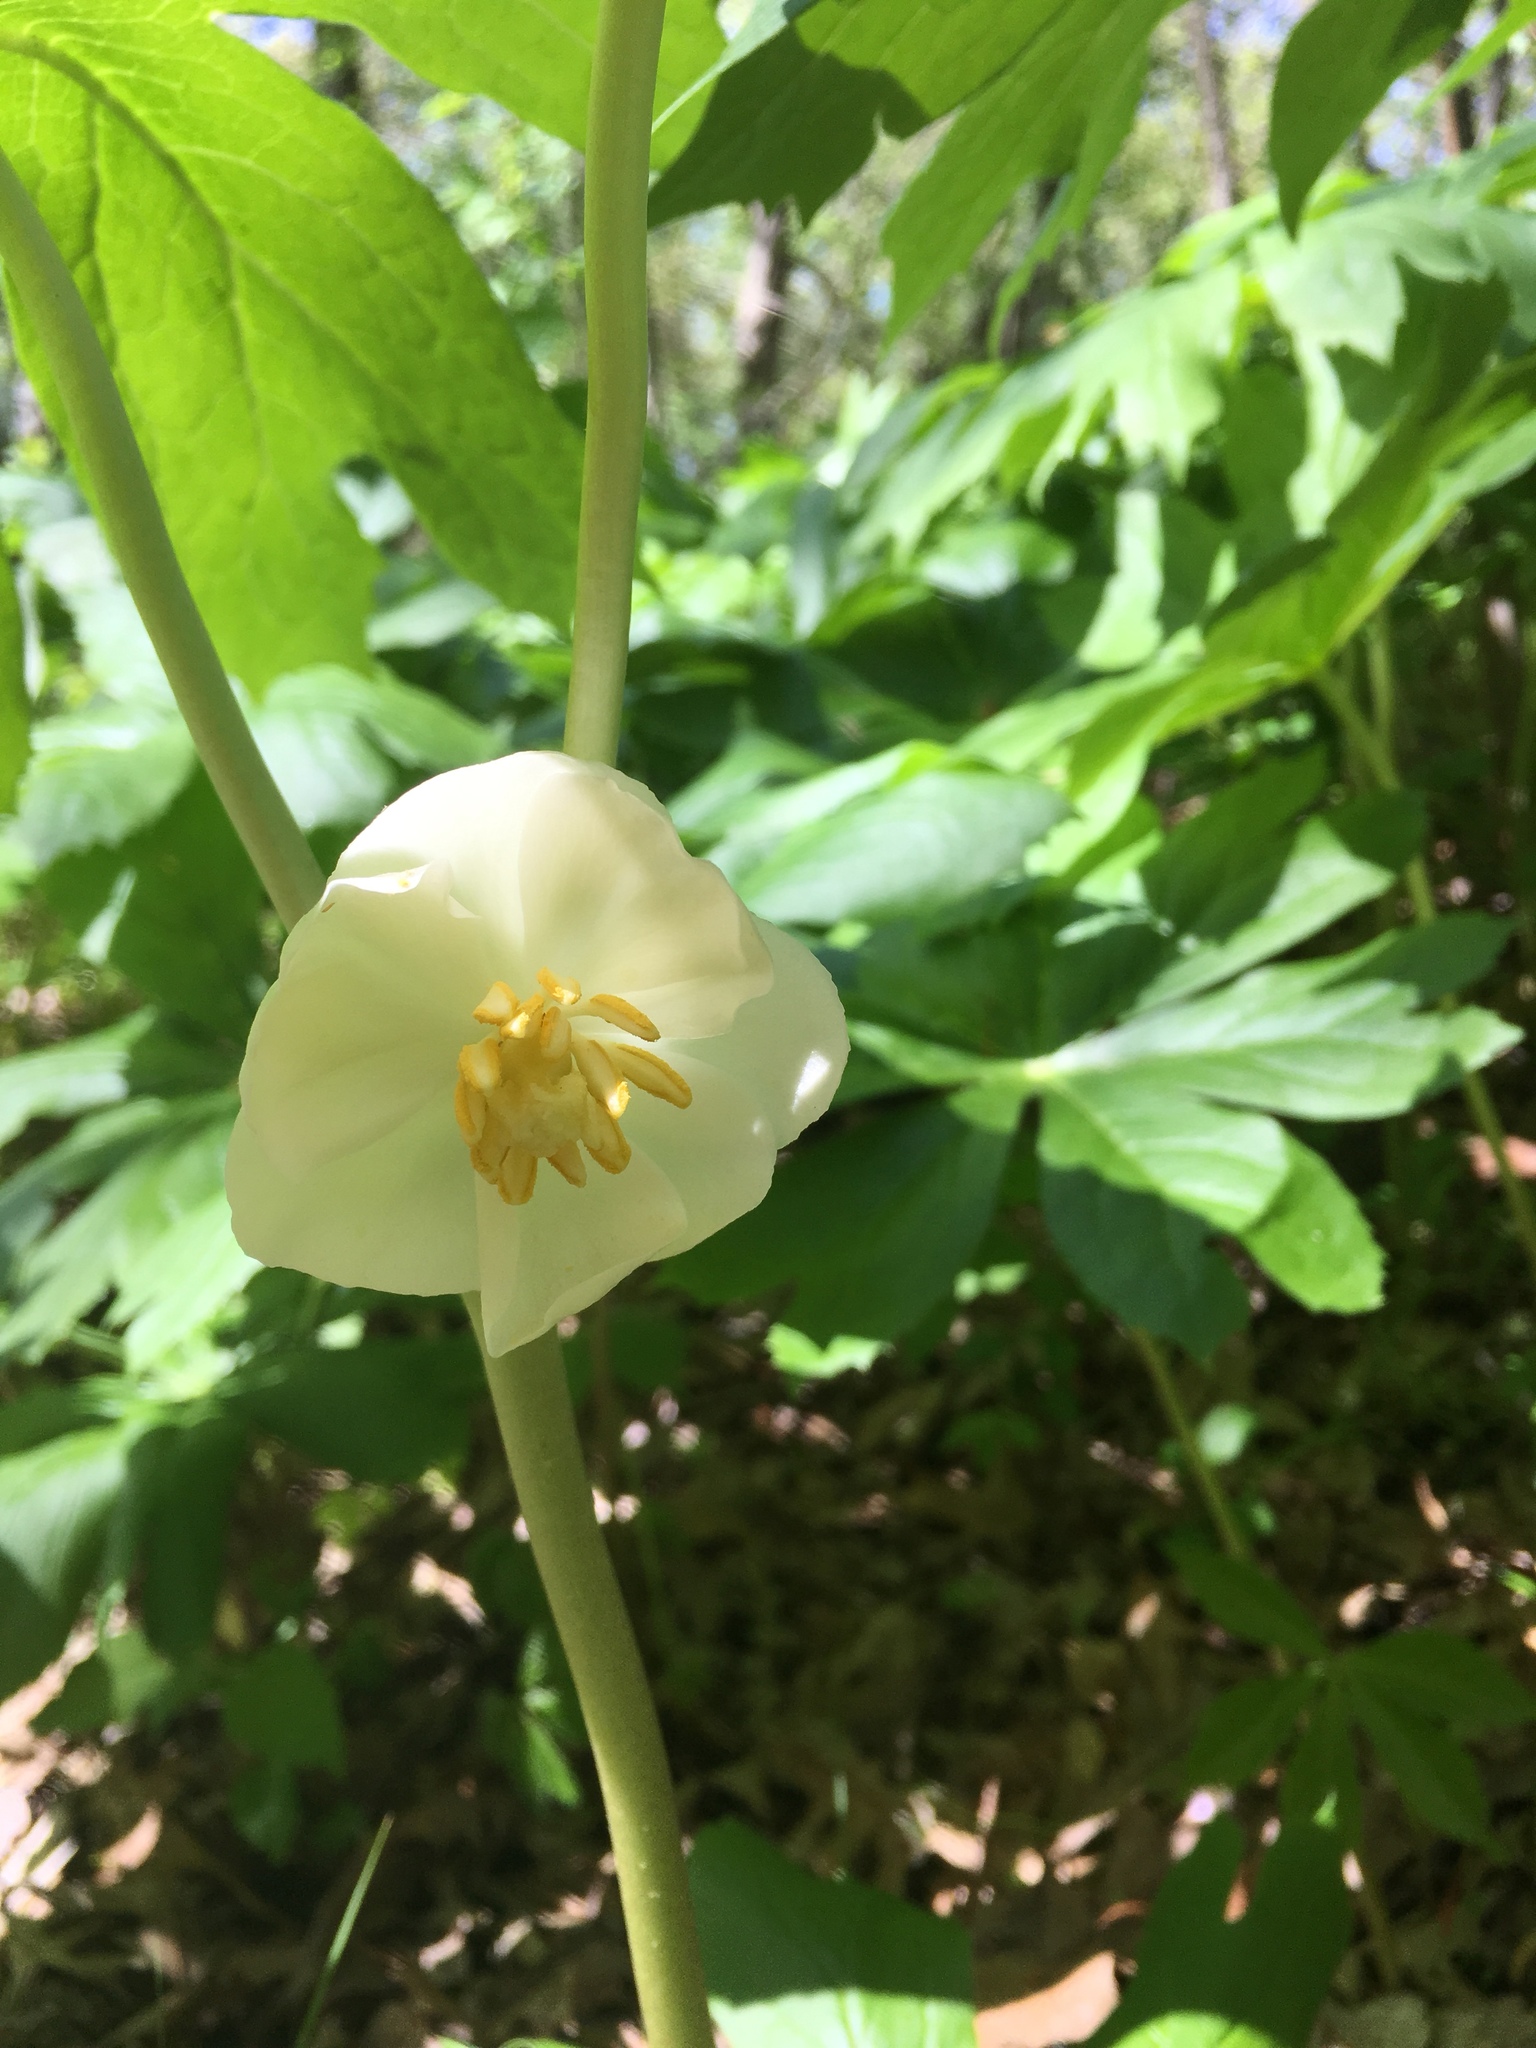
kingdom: Plantae
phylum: Tracheophyta
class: Magnoliopsida
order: Ranunculales
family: Berberidaceae
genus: Podophyllum
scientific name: Podophyllum peltatum
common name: Wild mandrake
